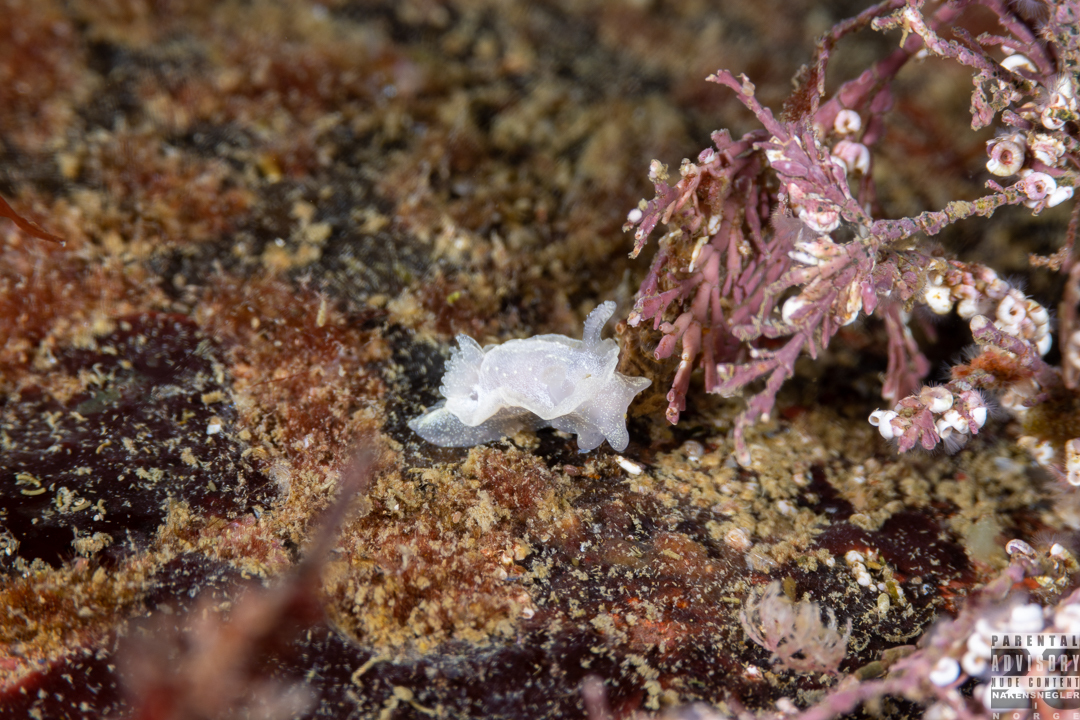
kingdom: Animalia
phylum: Mollusca
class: Gastropoda
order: Nudibranchia
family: Goniodorididae
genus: Okenia
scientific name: Okenia
